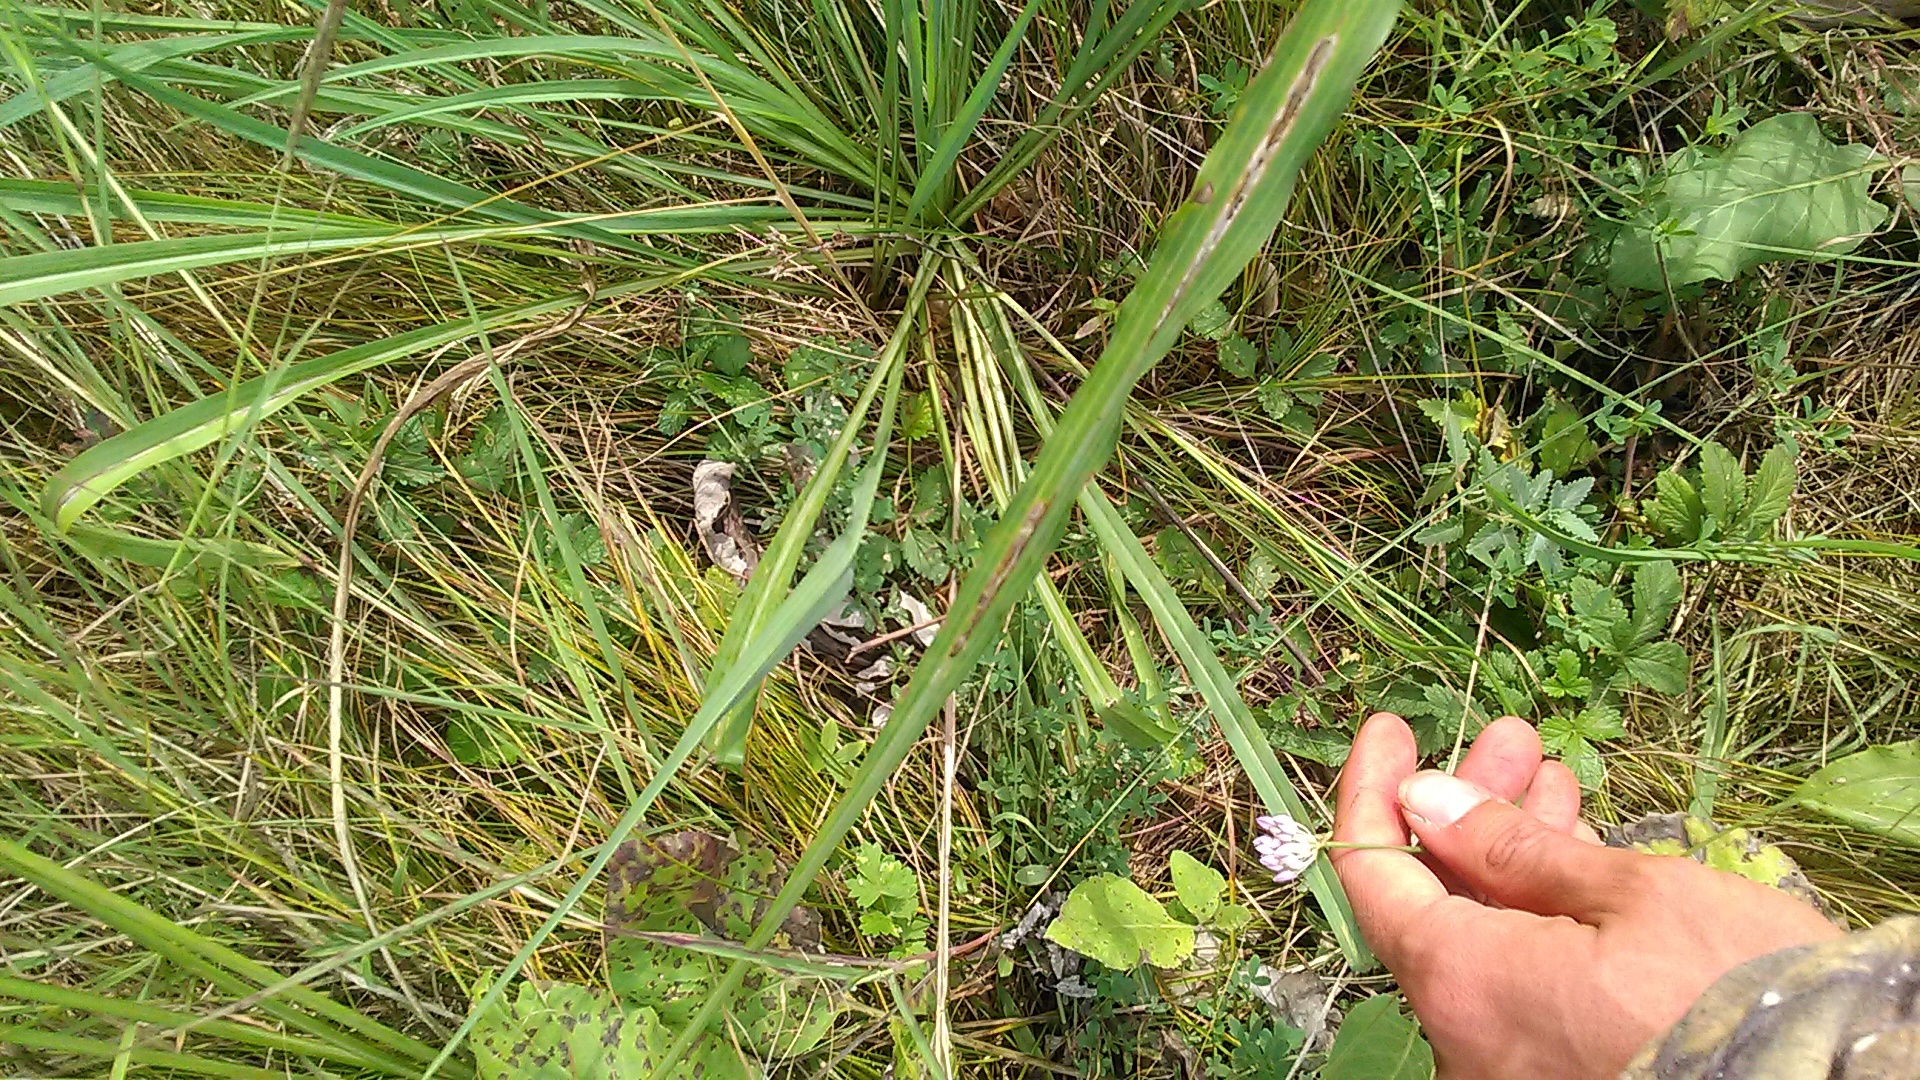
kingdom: Plantae
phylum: Tracheophyta
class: Liliopsida
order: Asparagales
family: Amaryllidaceae
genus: Allium
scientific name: Allium
